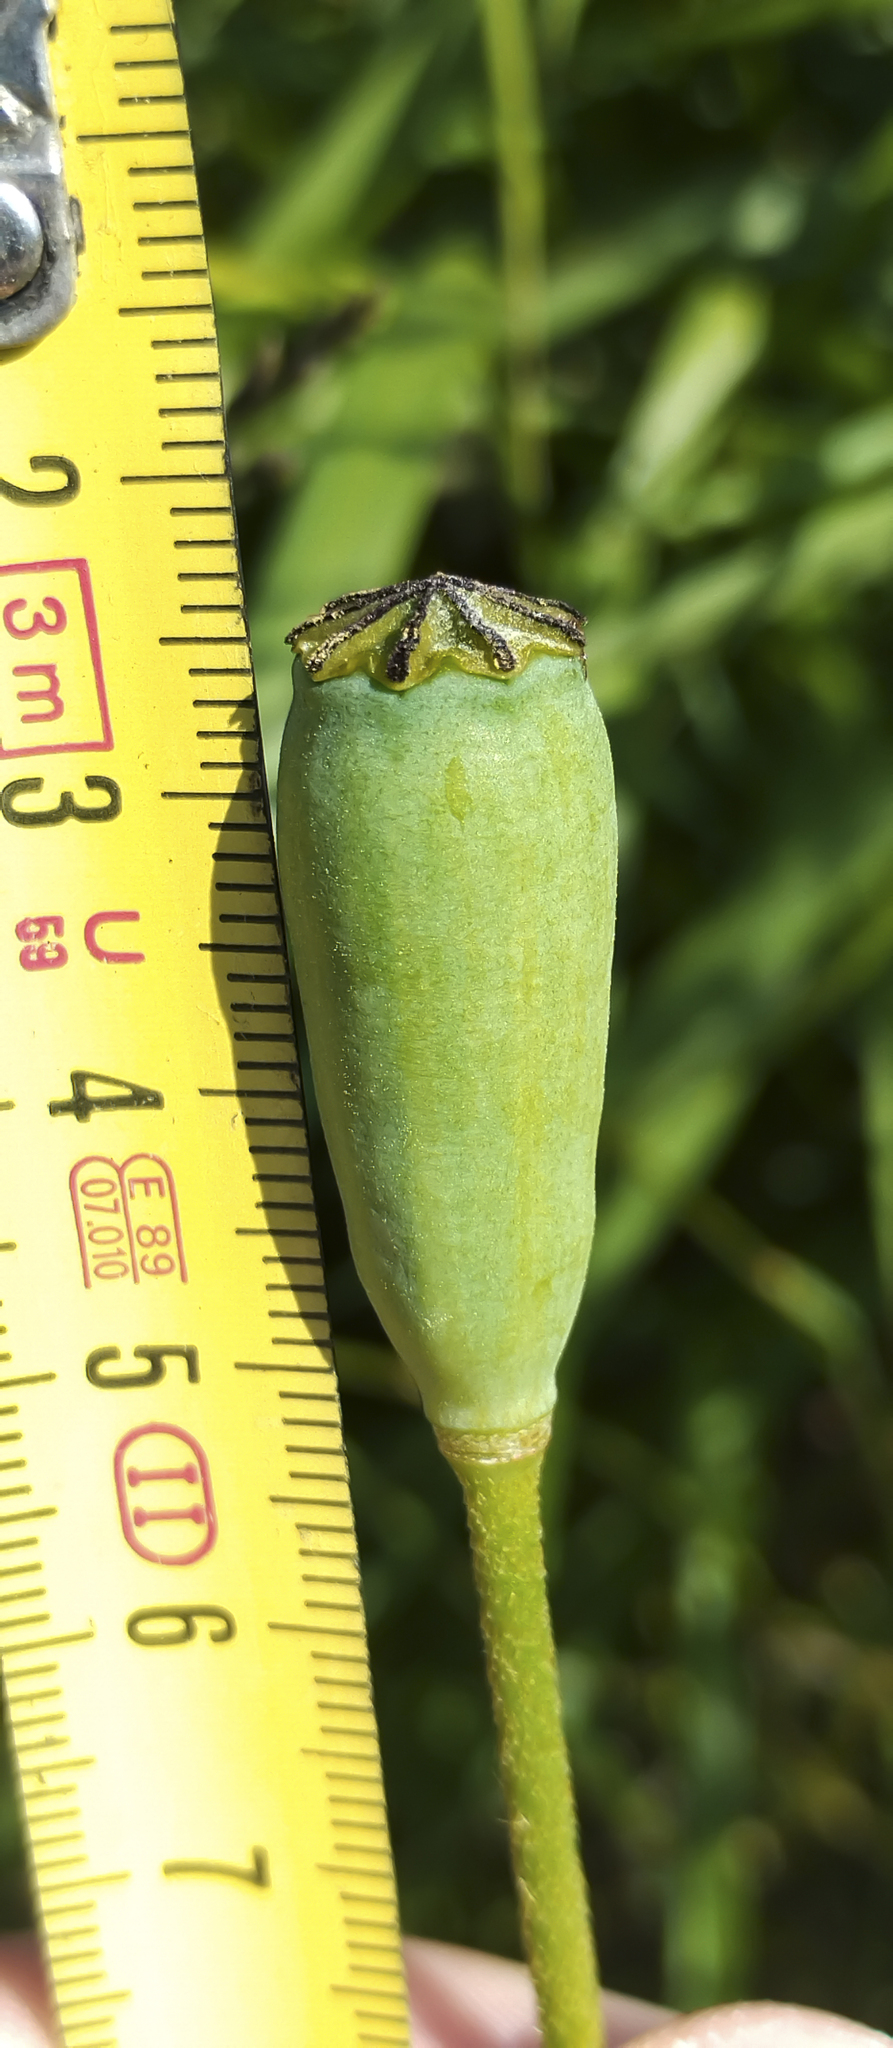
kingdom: Plantae
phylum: Tracheophyta
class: Magnoliopsida
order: Ranunculales
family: Papaveraceae
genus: Papaver
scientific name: Papaver lecoqii
